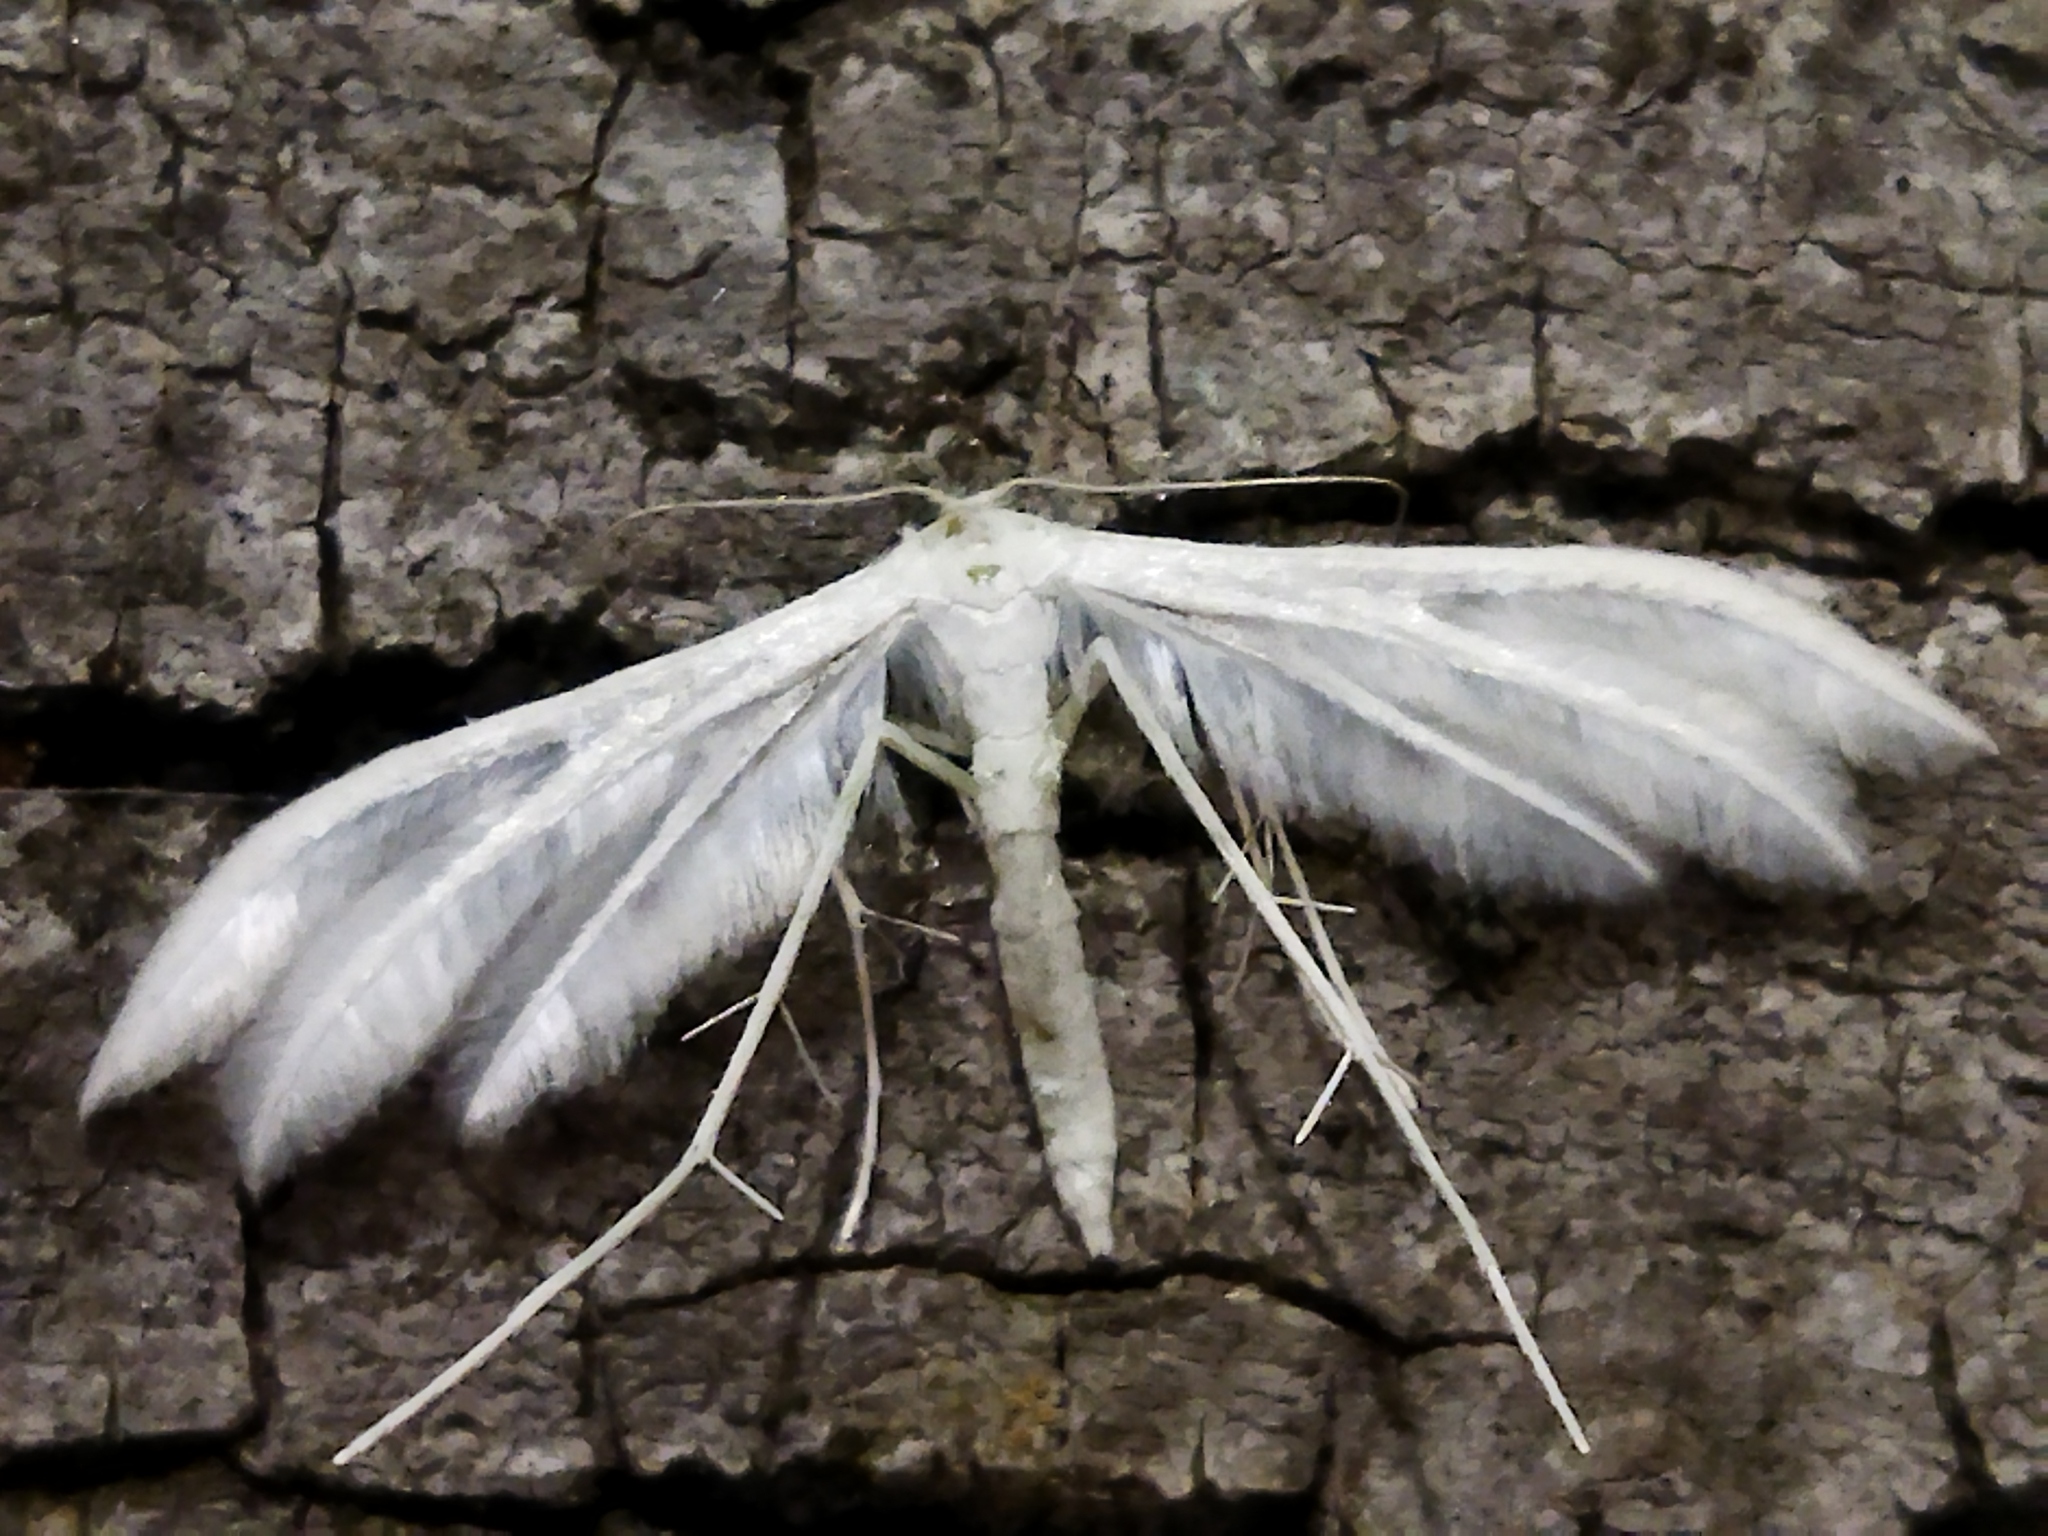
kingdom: Animalia
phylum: Arthropoda
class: Insecta
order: Lepidoptera
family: Pterophoridae
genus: Pterophorus
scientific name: Pterophorus pentadactyla
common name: White plume moth
